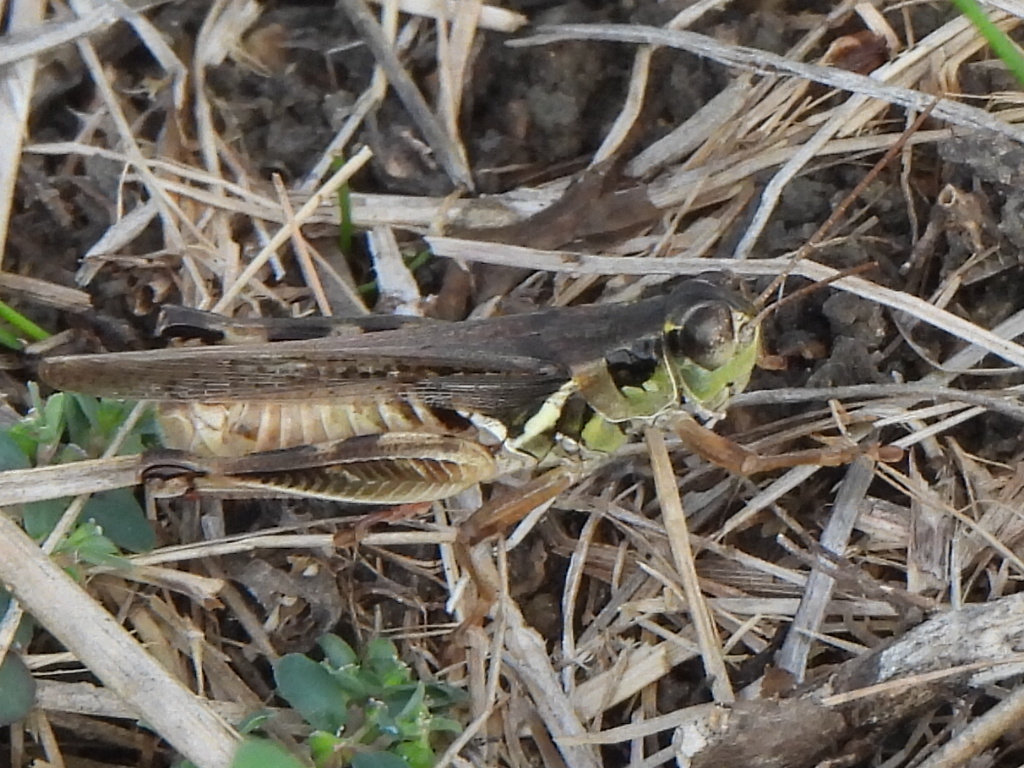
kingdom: Animalia
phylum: Arthropoda
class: Insecta
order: Orthoptera
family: Acrididae
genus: Melanoplus
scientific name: Melanoplus femurrubrum
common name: Red-legged grasshopper
